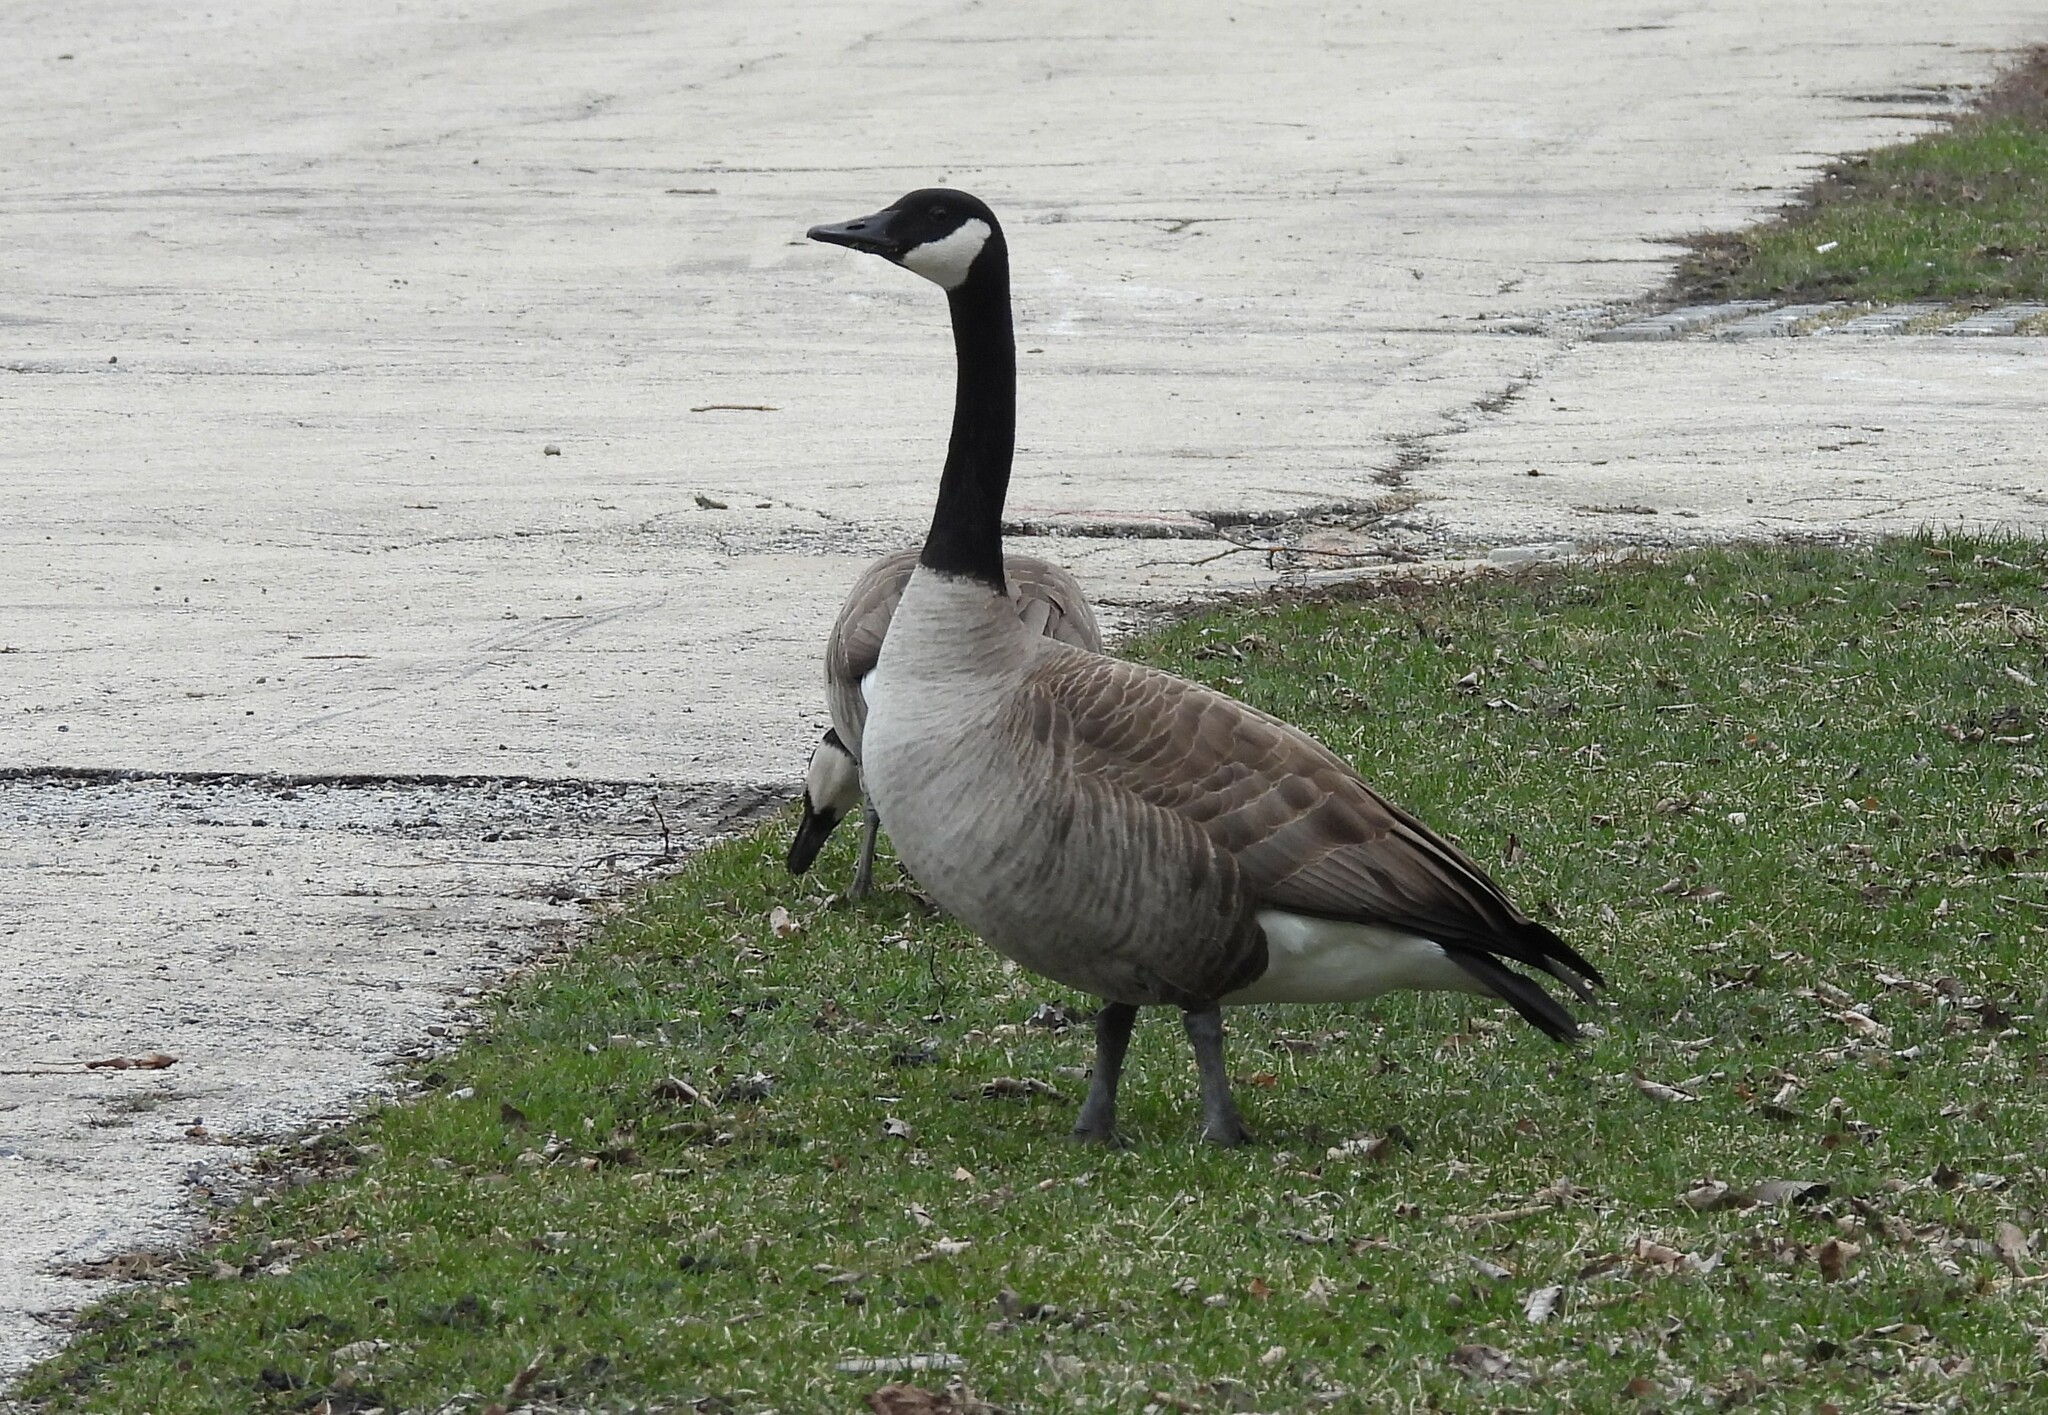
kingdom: Animalia
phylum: Chordata
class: Aves
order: Anseriformes
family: Anatidae
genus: Branta
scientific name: Branta canadensis
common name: Canada goose
